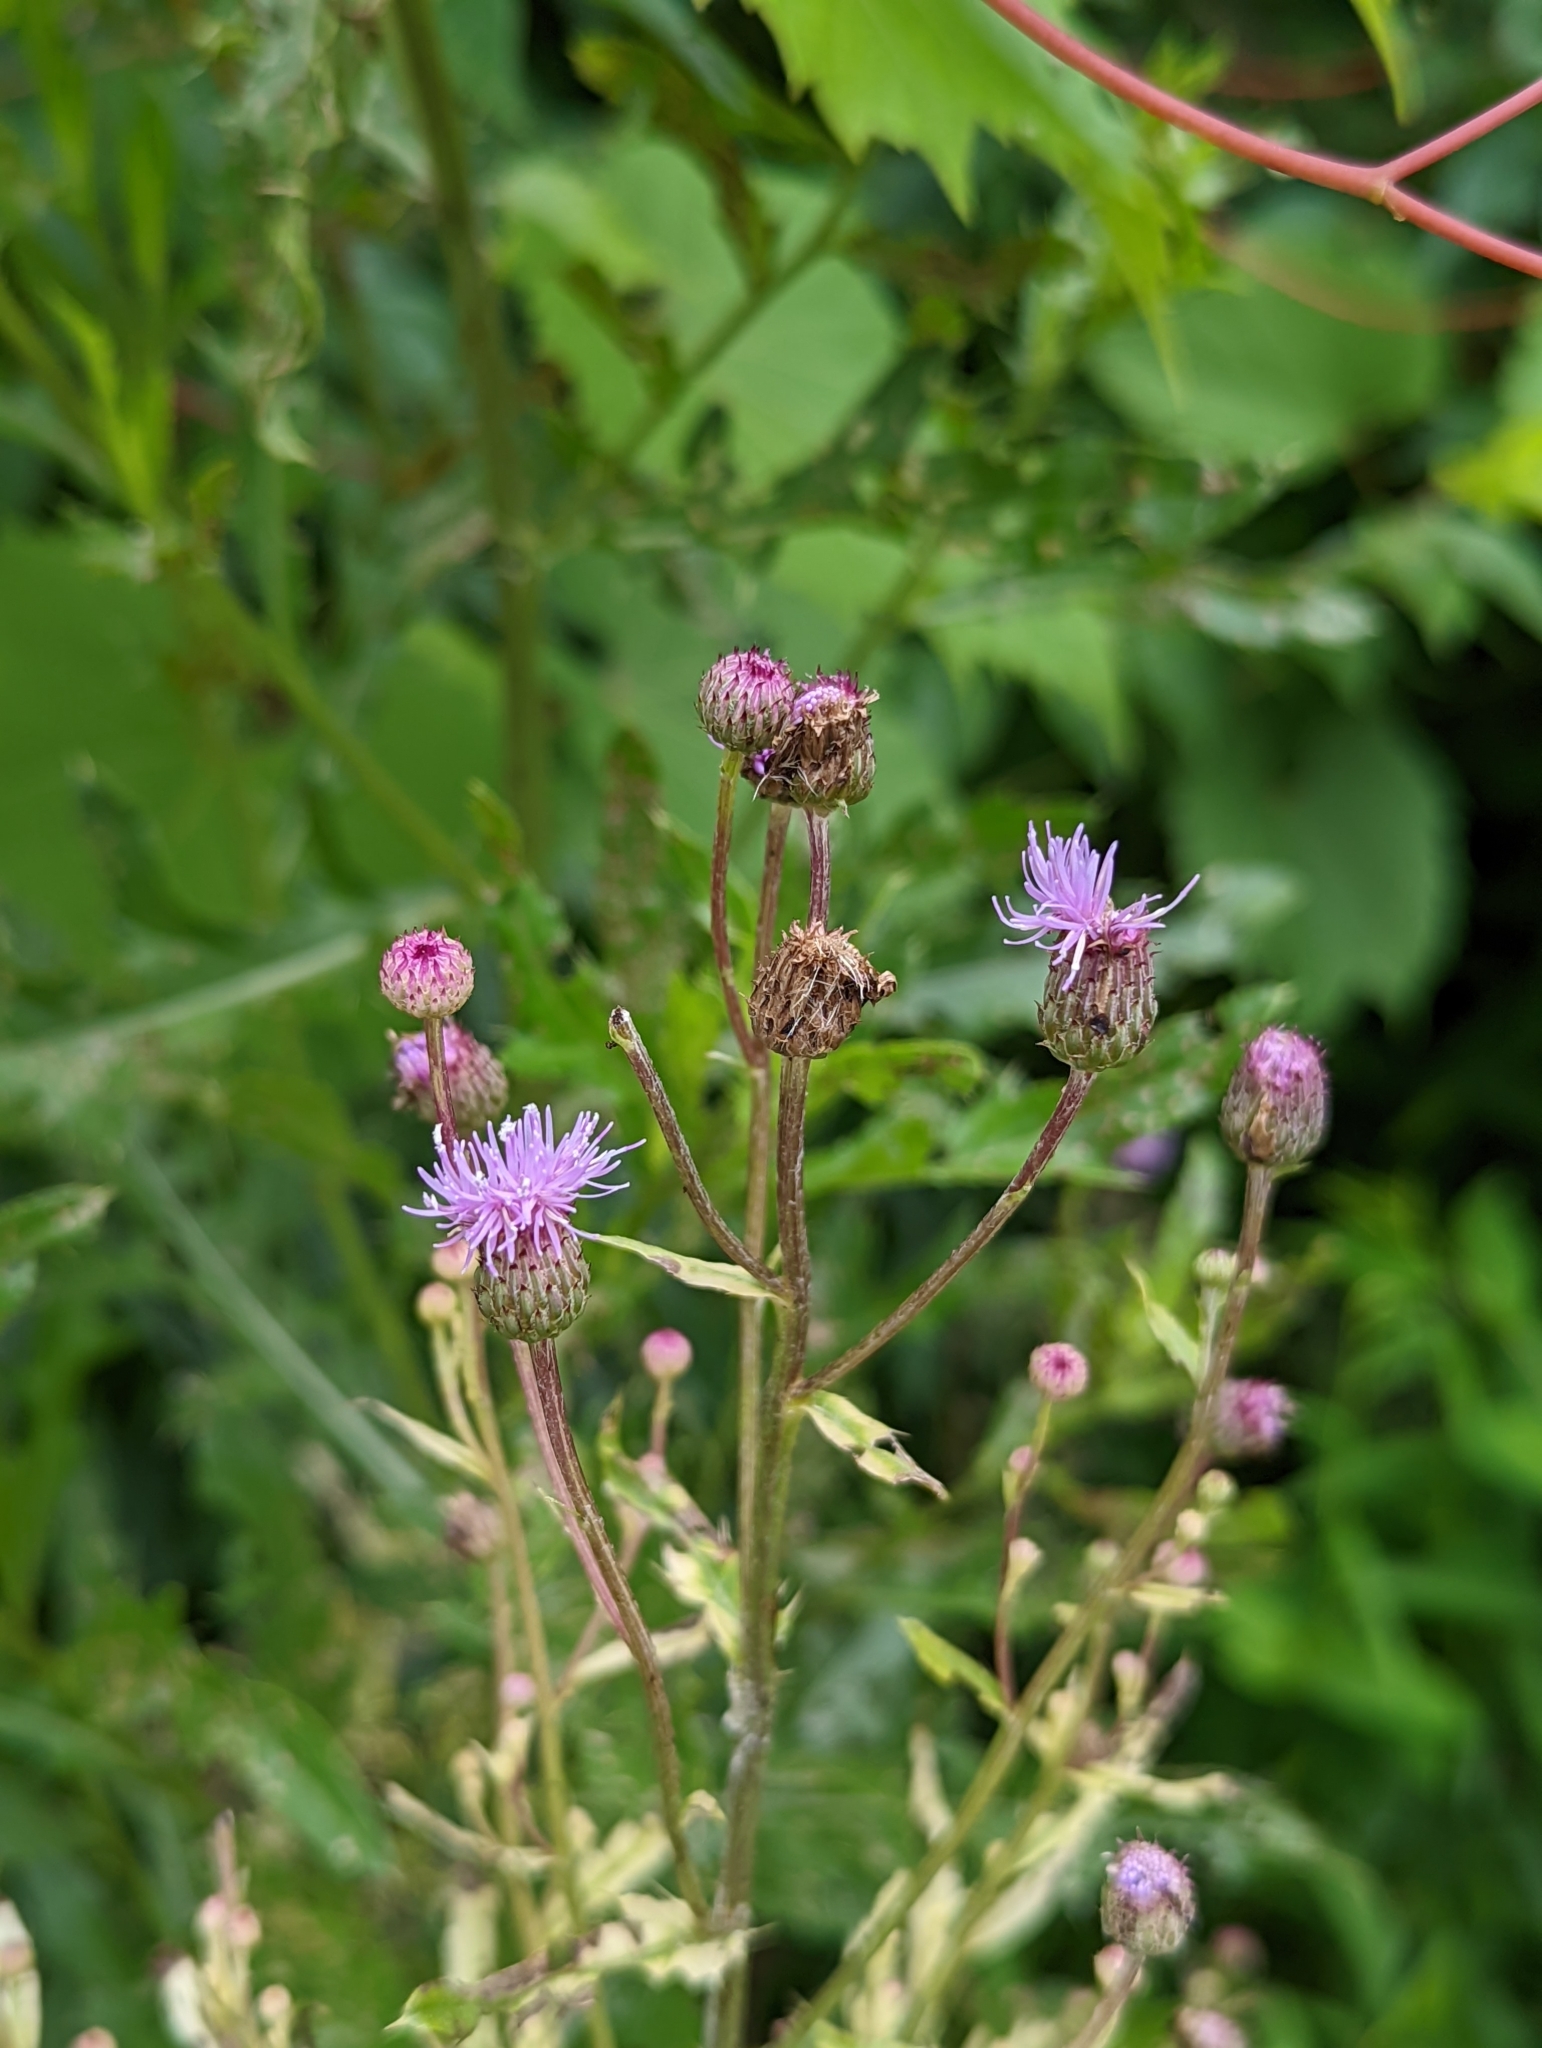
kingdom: Plantae
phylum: Tracheophyta
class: Magnoliopsida
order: Asterales
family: Asteraceae
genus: Cirsium
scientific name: Cirsium arvense
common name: Creeping thistle
